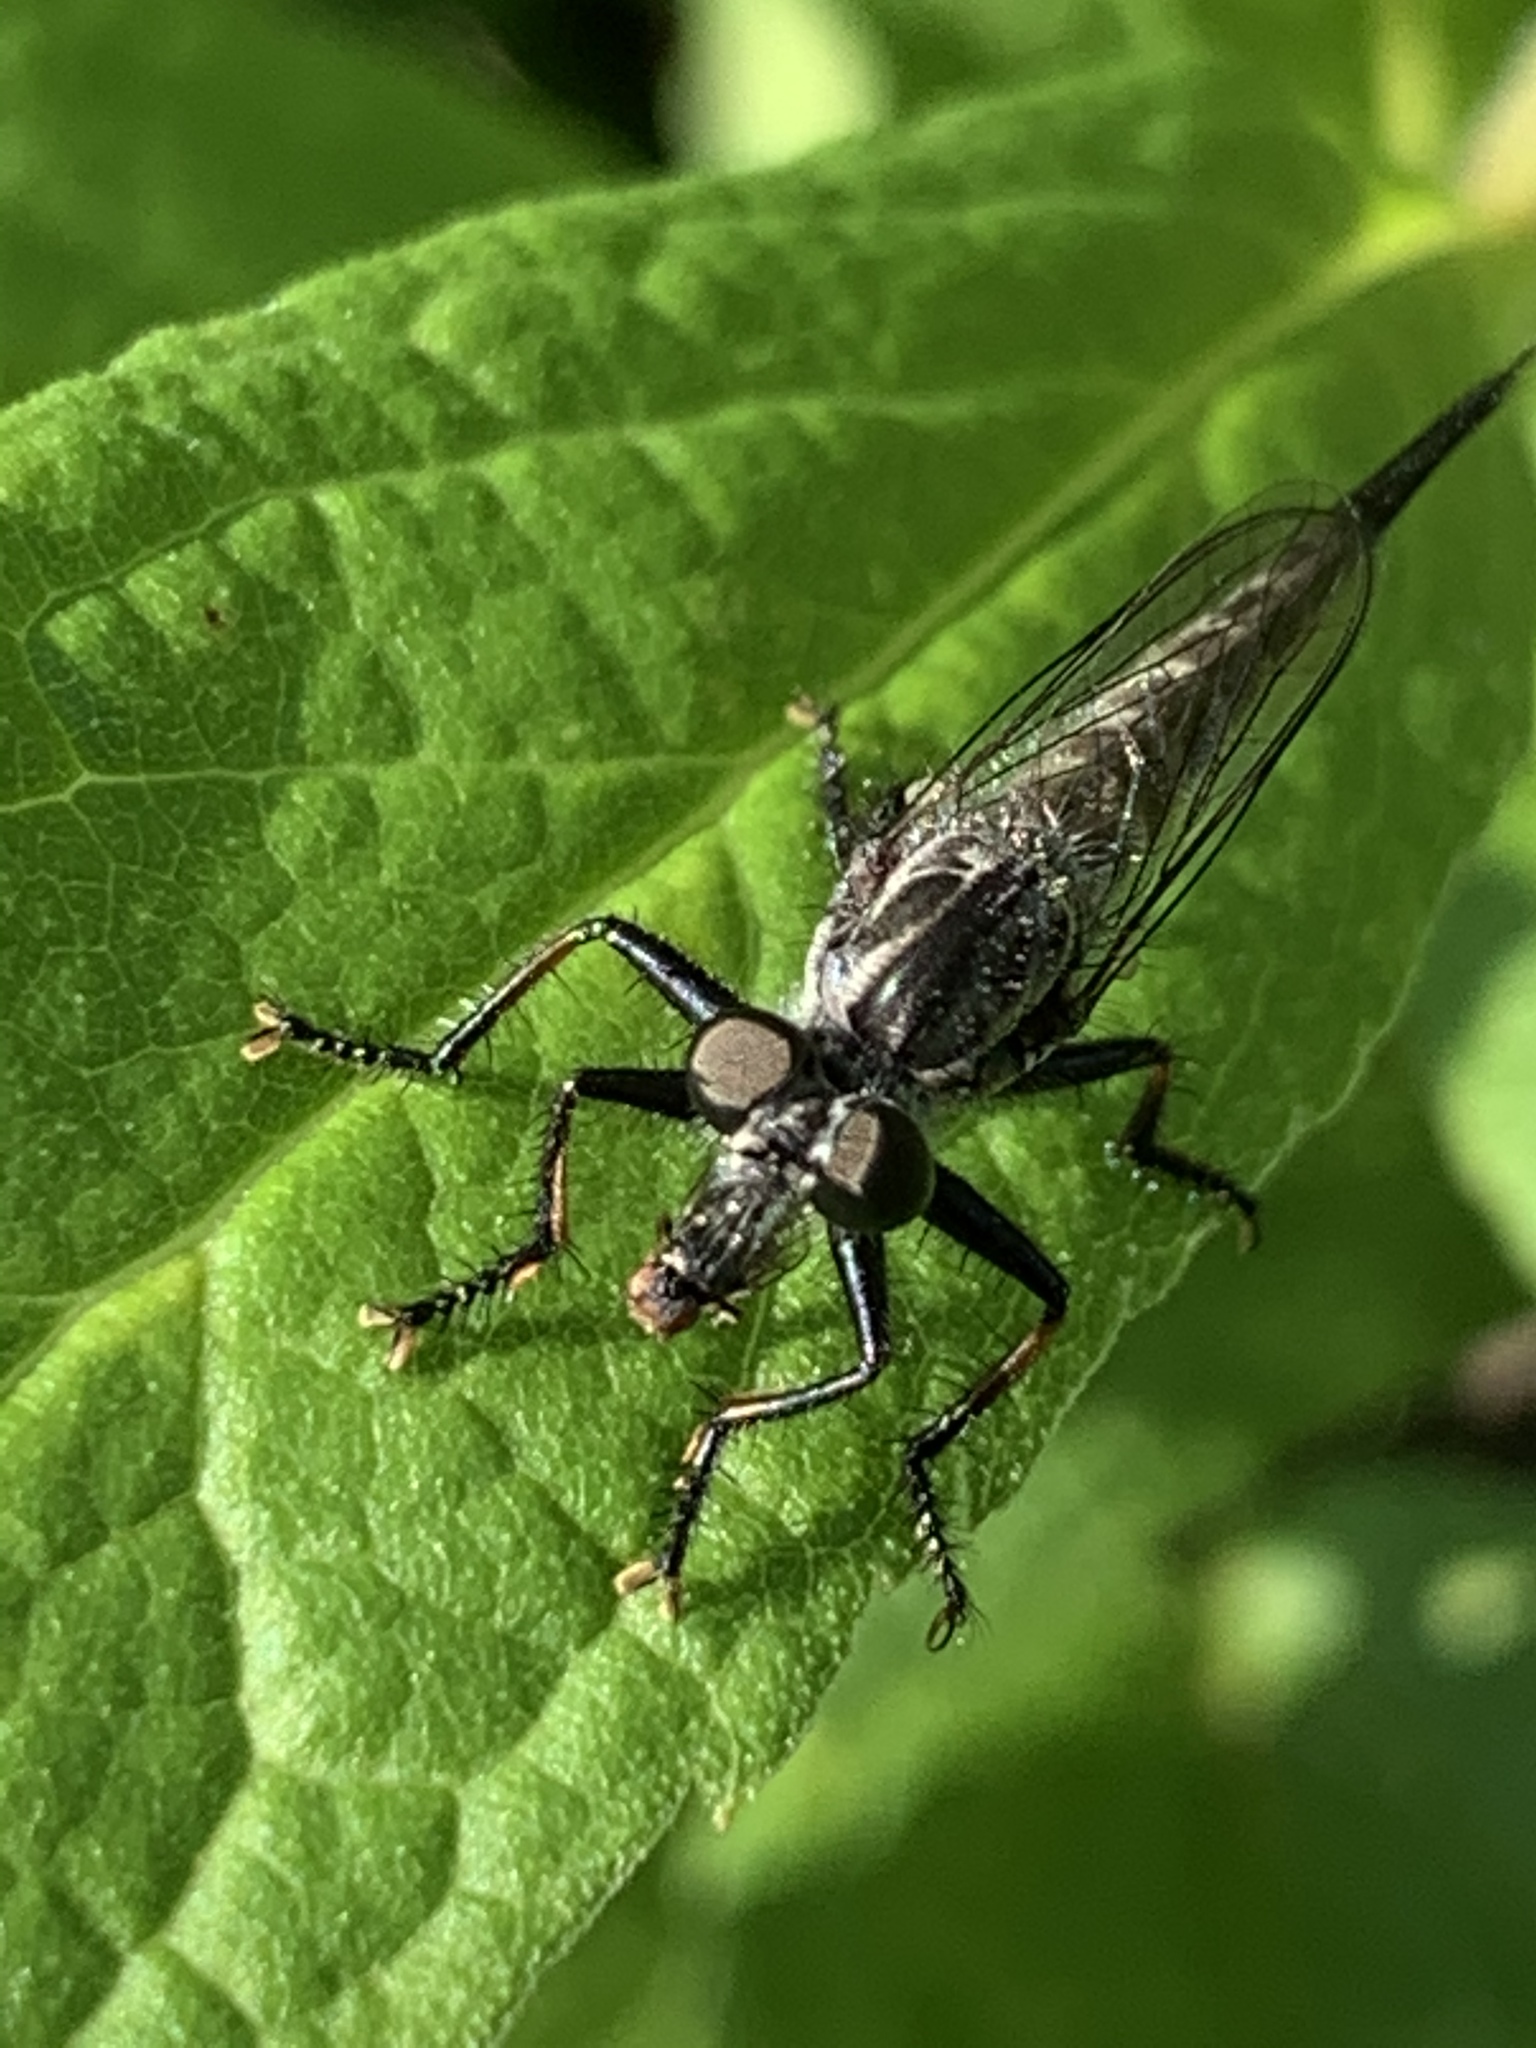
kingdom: Animalia
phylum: Arthropoda
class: Insecta
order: Diptera
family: Asilidae
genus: Efferia
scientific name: Efferia aestuans
